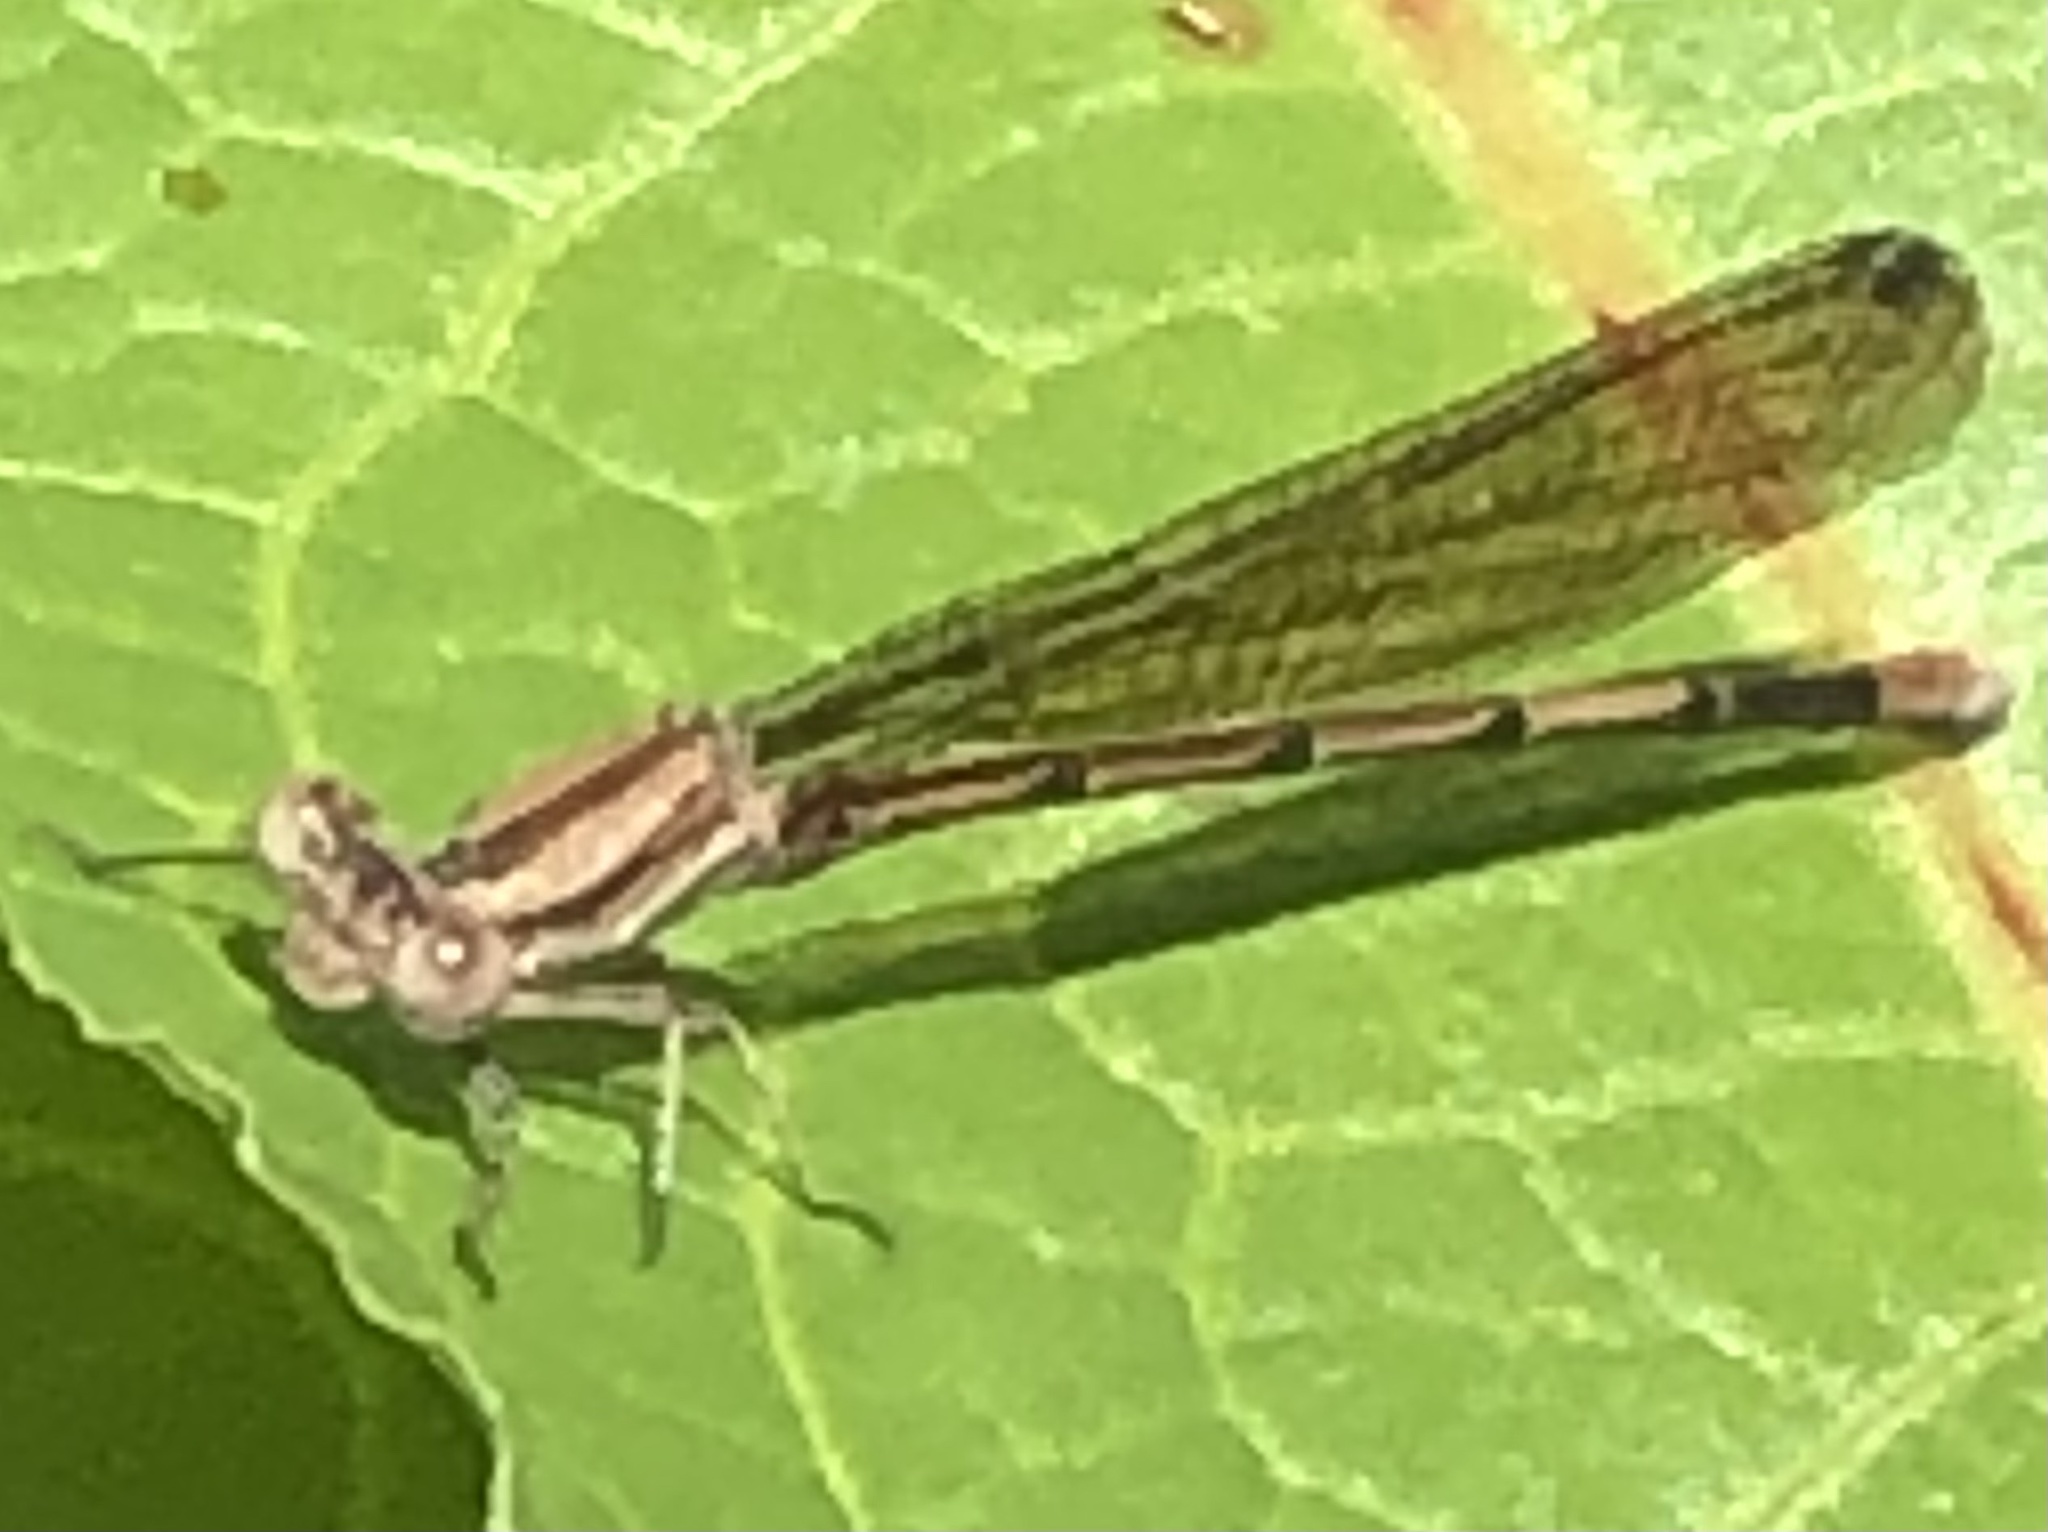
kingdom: Animalia
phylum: Arthropoda
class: Insecta
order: Odonata
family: Coenagrionidae
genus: Argia
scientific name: Argia fumipennis
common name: Variable dancer
